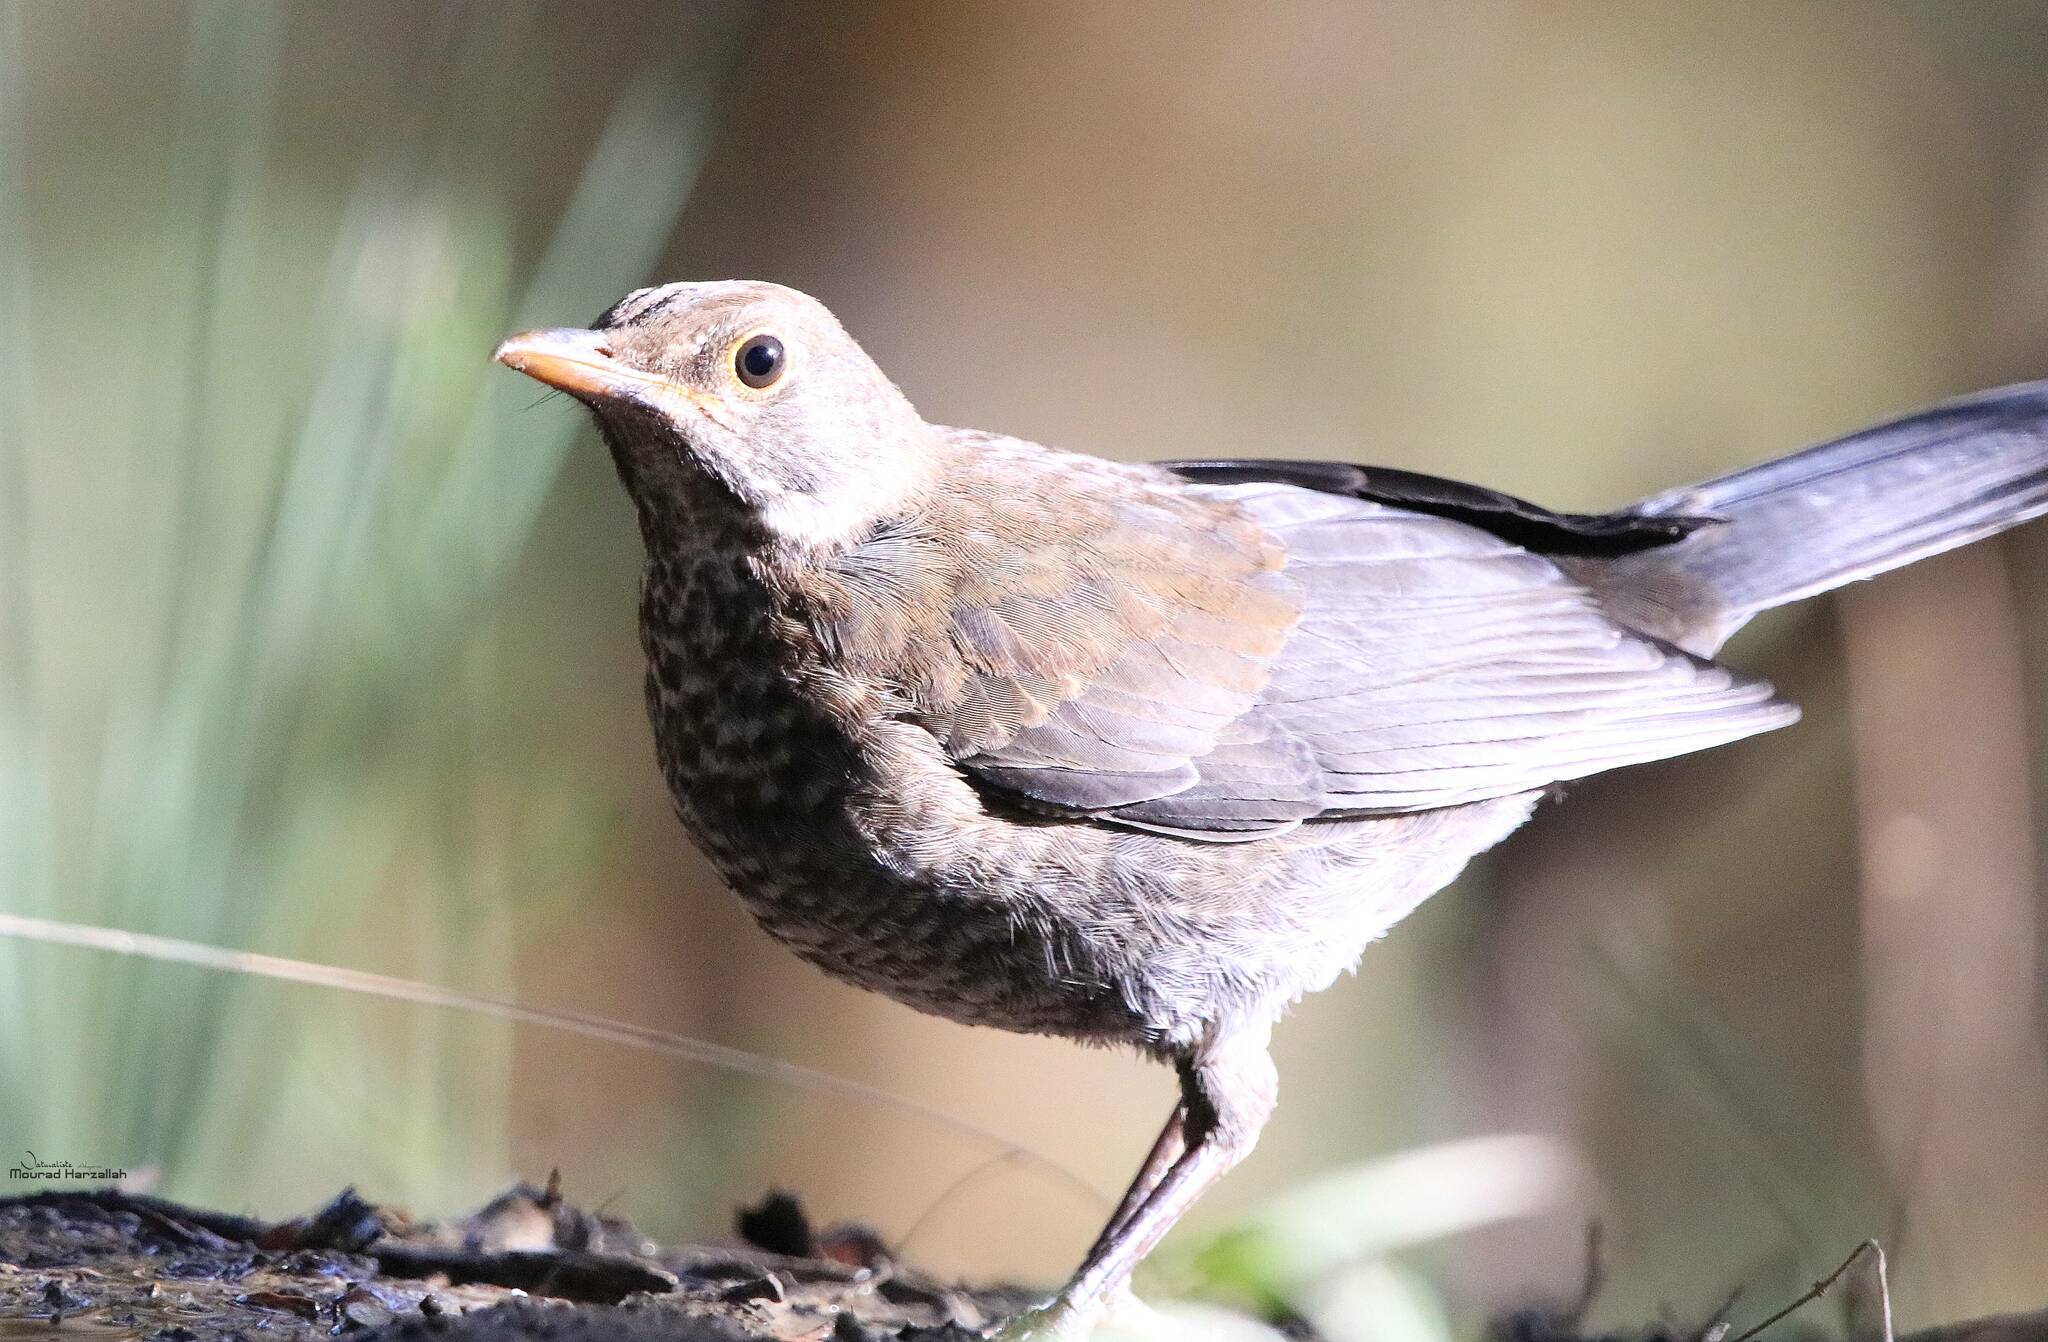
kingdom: Animalia
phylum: Chordata
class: Aves
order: Passeriformes
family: Turdidae
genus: Turdus
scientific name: Turdus merula
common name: Common blackbird
